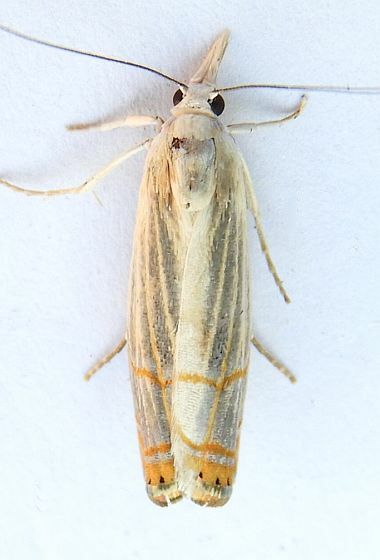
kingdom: Animalia
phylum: Arthropoda
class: Insecta
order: Lepidoptera
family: Crambidae
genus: Parapediasia
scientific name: Parapediasia decorellus
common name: Graceful grass-veneer
